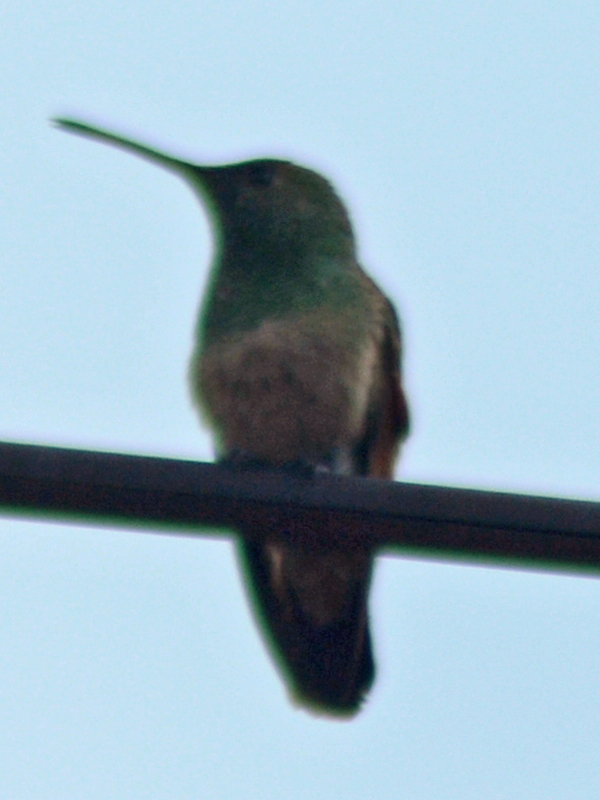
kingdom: Animalia
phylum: Chordata
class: Aves
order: Apodiformes
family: Trochilidae
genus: Saucerottia
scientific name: Saucerottia beryllina
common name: Berylline hummingbird
